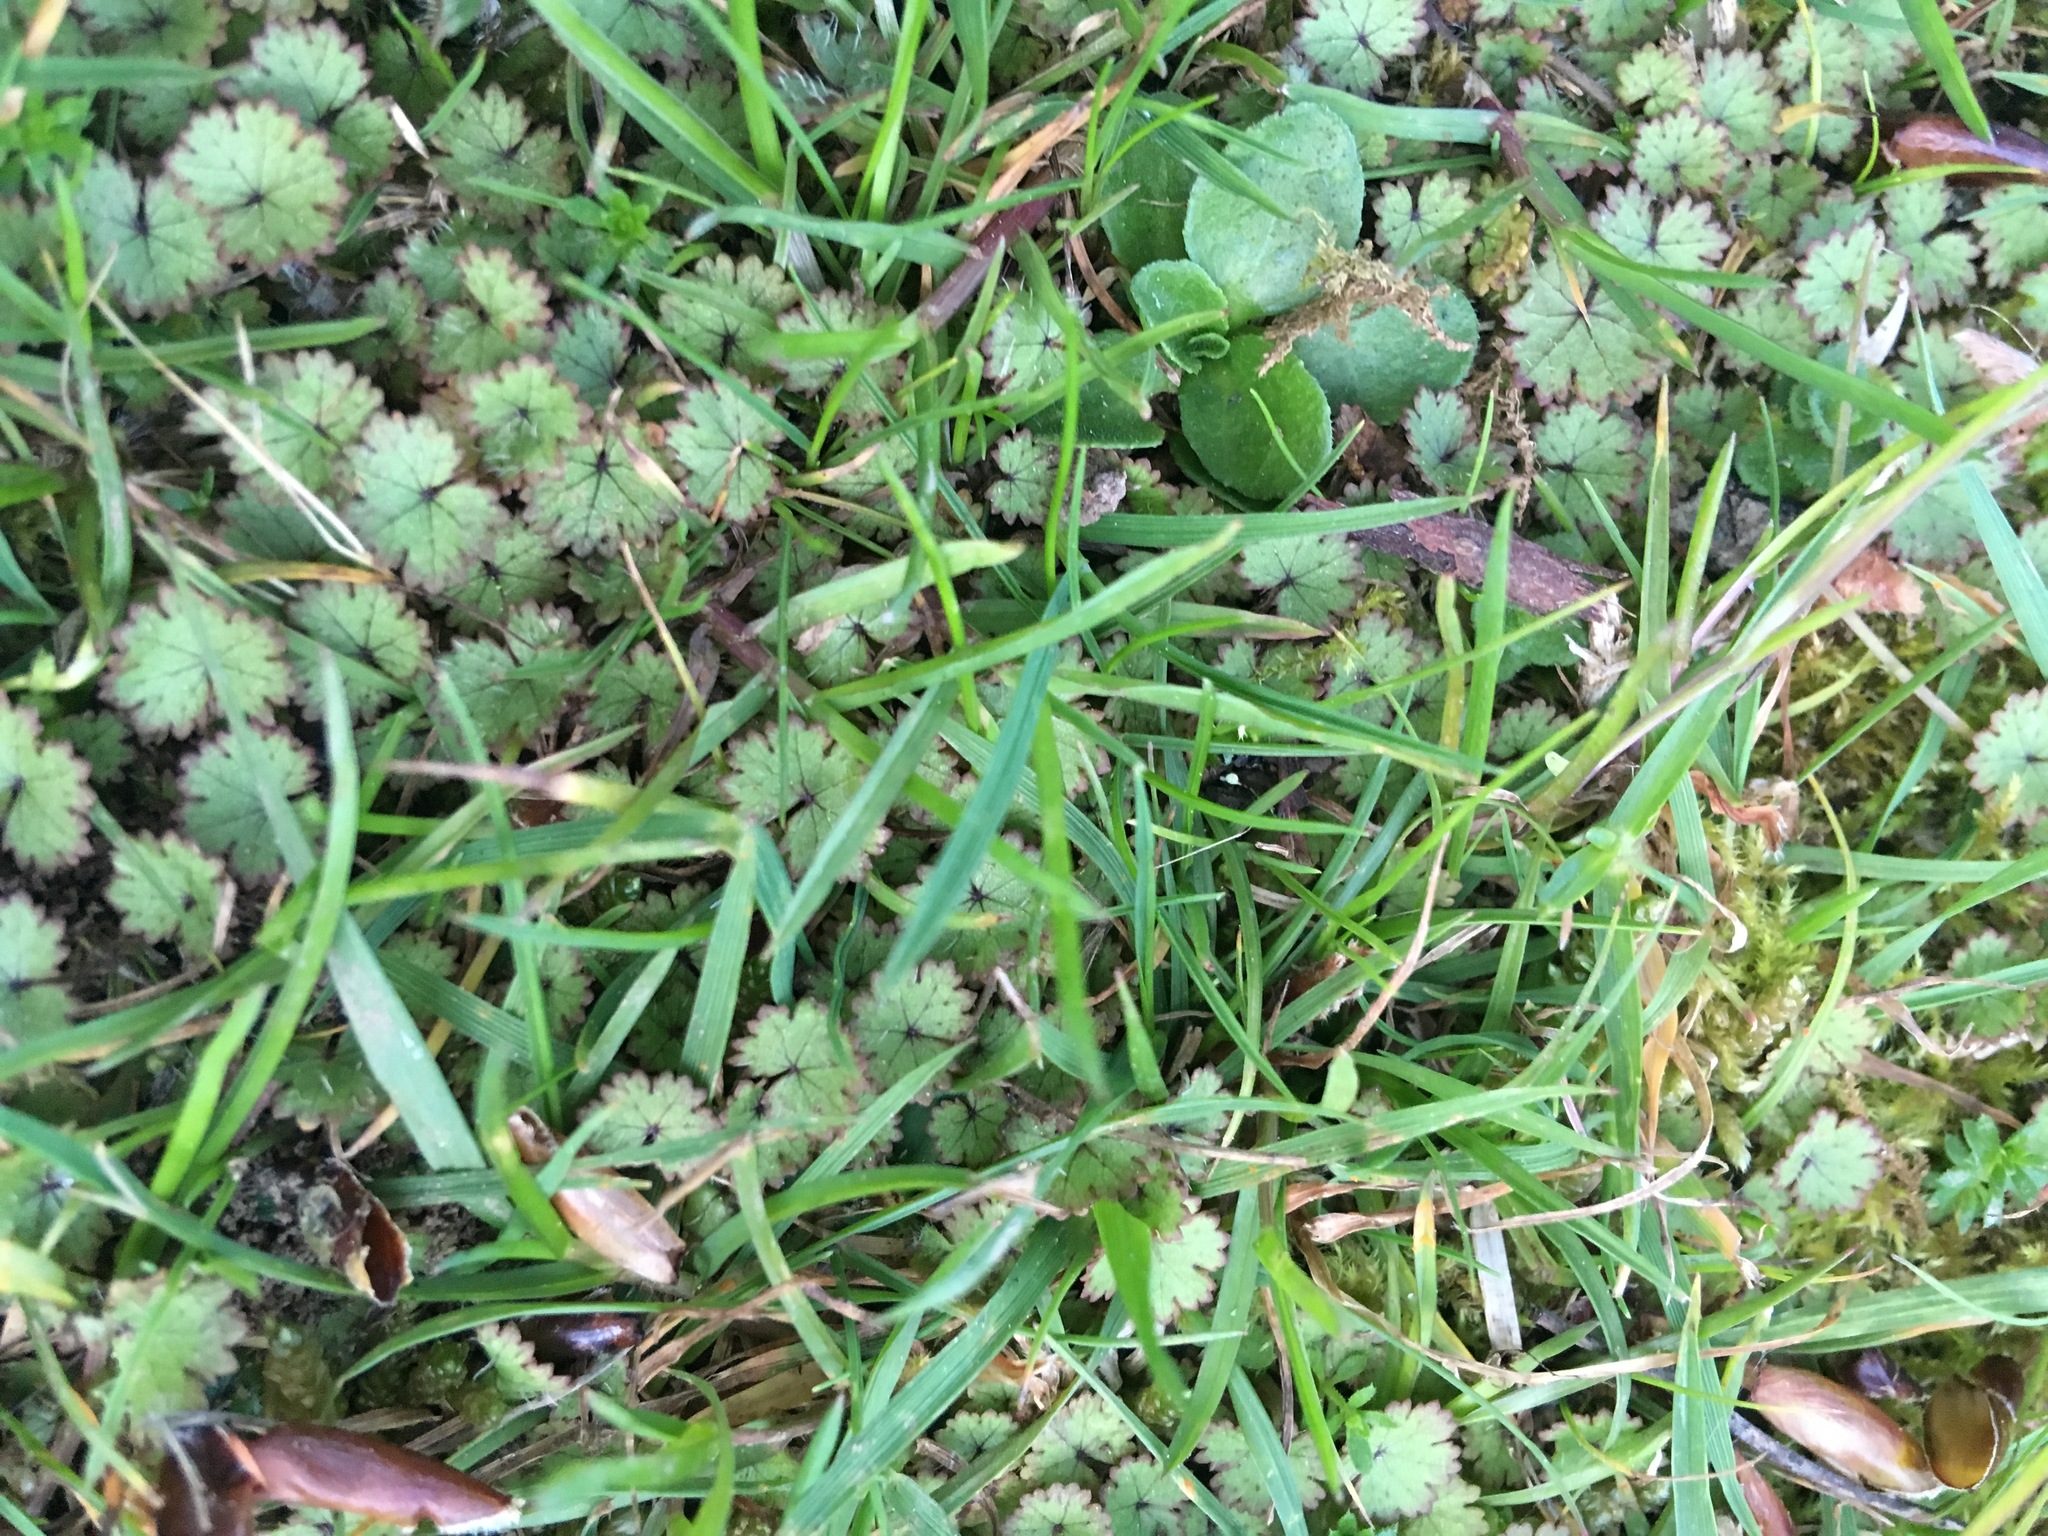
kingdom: Plantae
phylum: Tracheophyta
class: Magnoliopsida
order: Apiales
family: Araliaceae
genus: Hydrocotyle
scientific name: Hydrocotyle moschata
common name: Hairy pennywort
